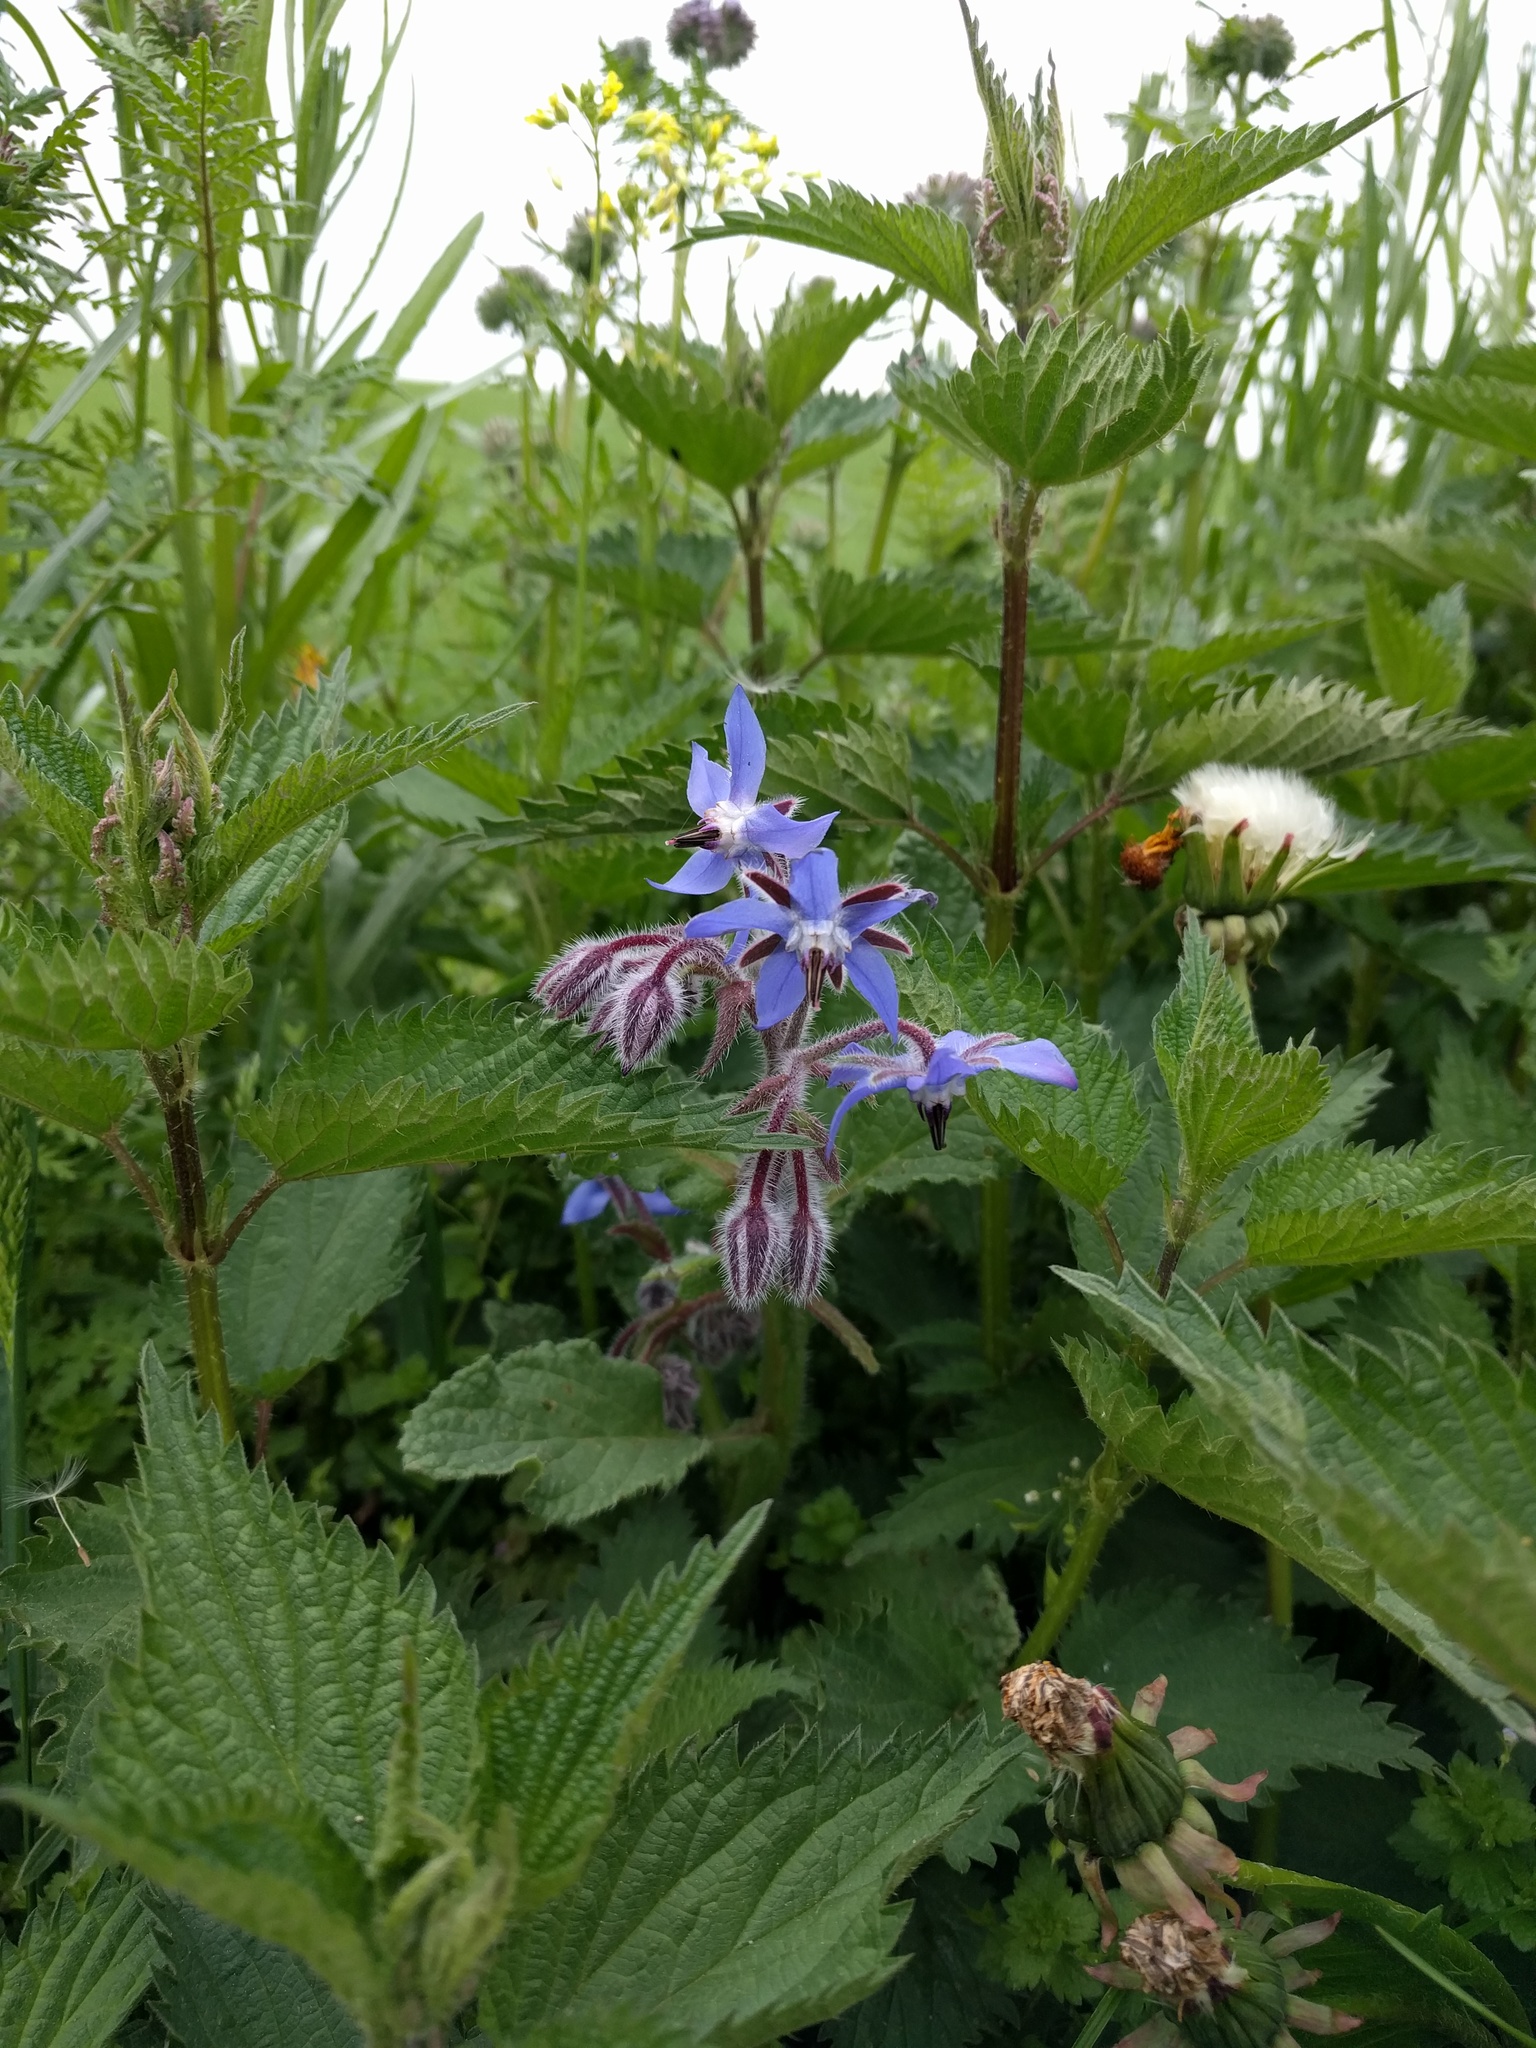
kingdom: Plantae
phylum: Tracheophyta
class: Magnoliopsida
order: Boraginales
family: Boraginaceae
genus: Borago
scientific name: Borago officinalis
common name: Borage
